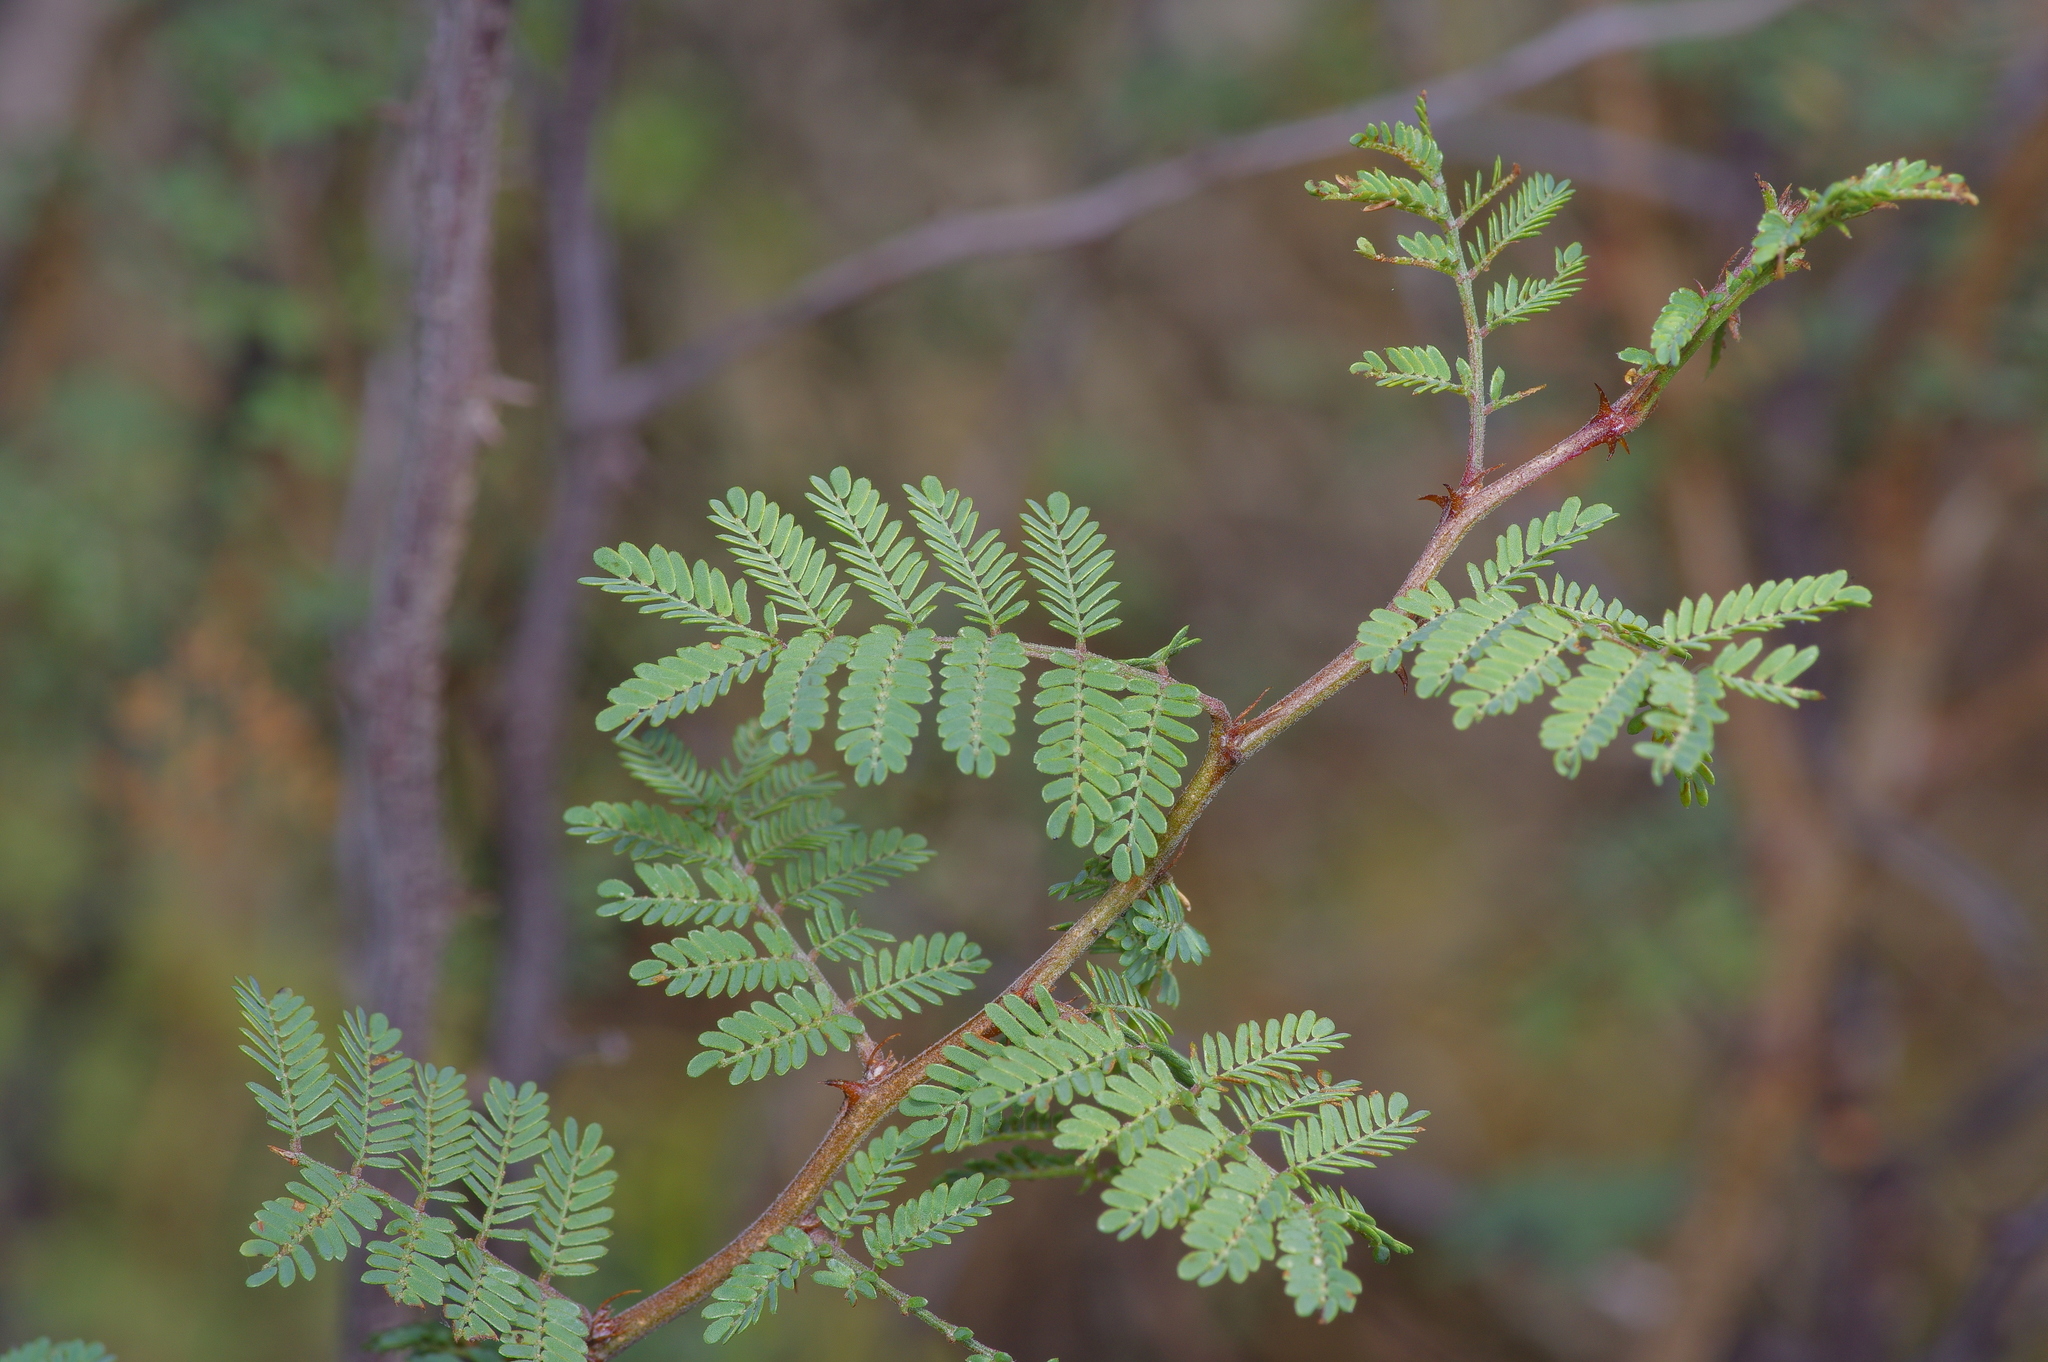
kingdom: Plantae
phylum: Tracheophyta
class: Magnoliopsida
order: Fabales
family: Fabaceae
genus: Mimosa
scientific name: Mimosa aculeaticarpa
